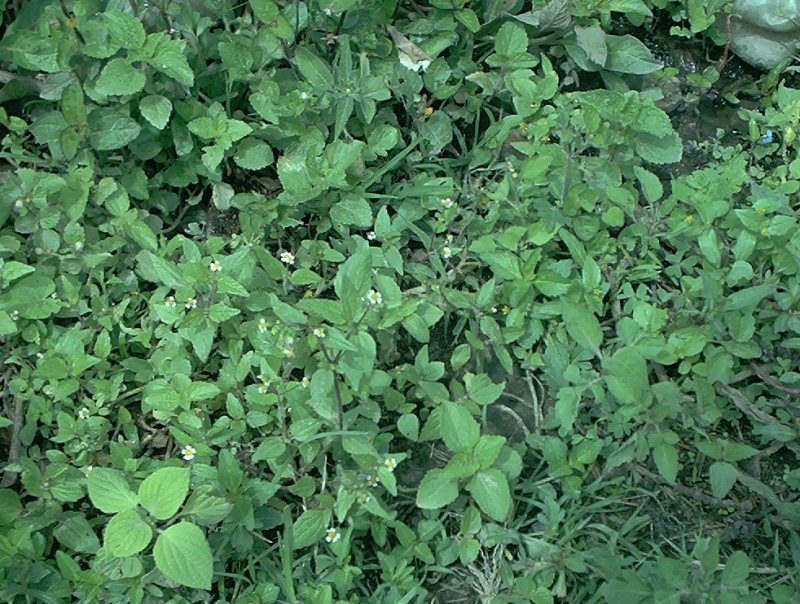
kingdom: Plantae
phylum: Tracheophyta
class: Magnoliopsida
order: Asterales
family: Asteraceae
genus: Galinsoga
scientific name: Galinsoga quadriradiata
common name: Shaggy soldier
